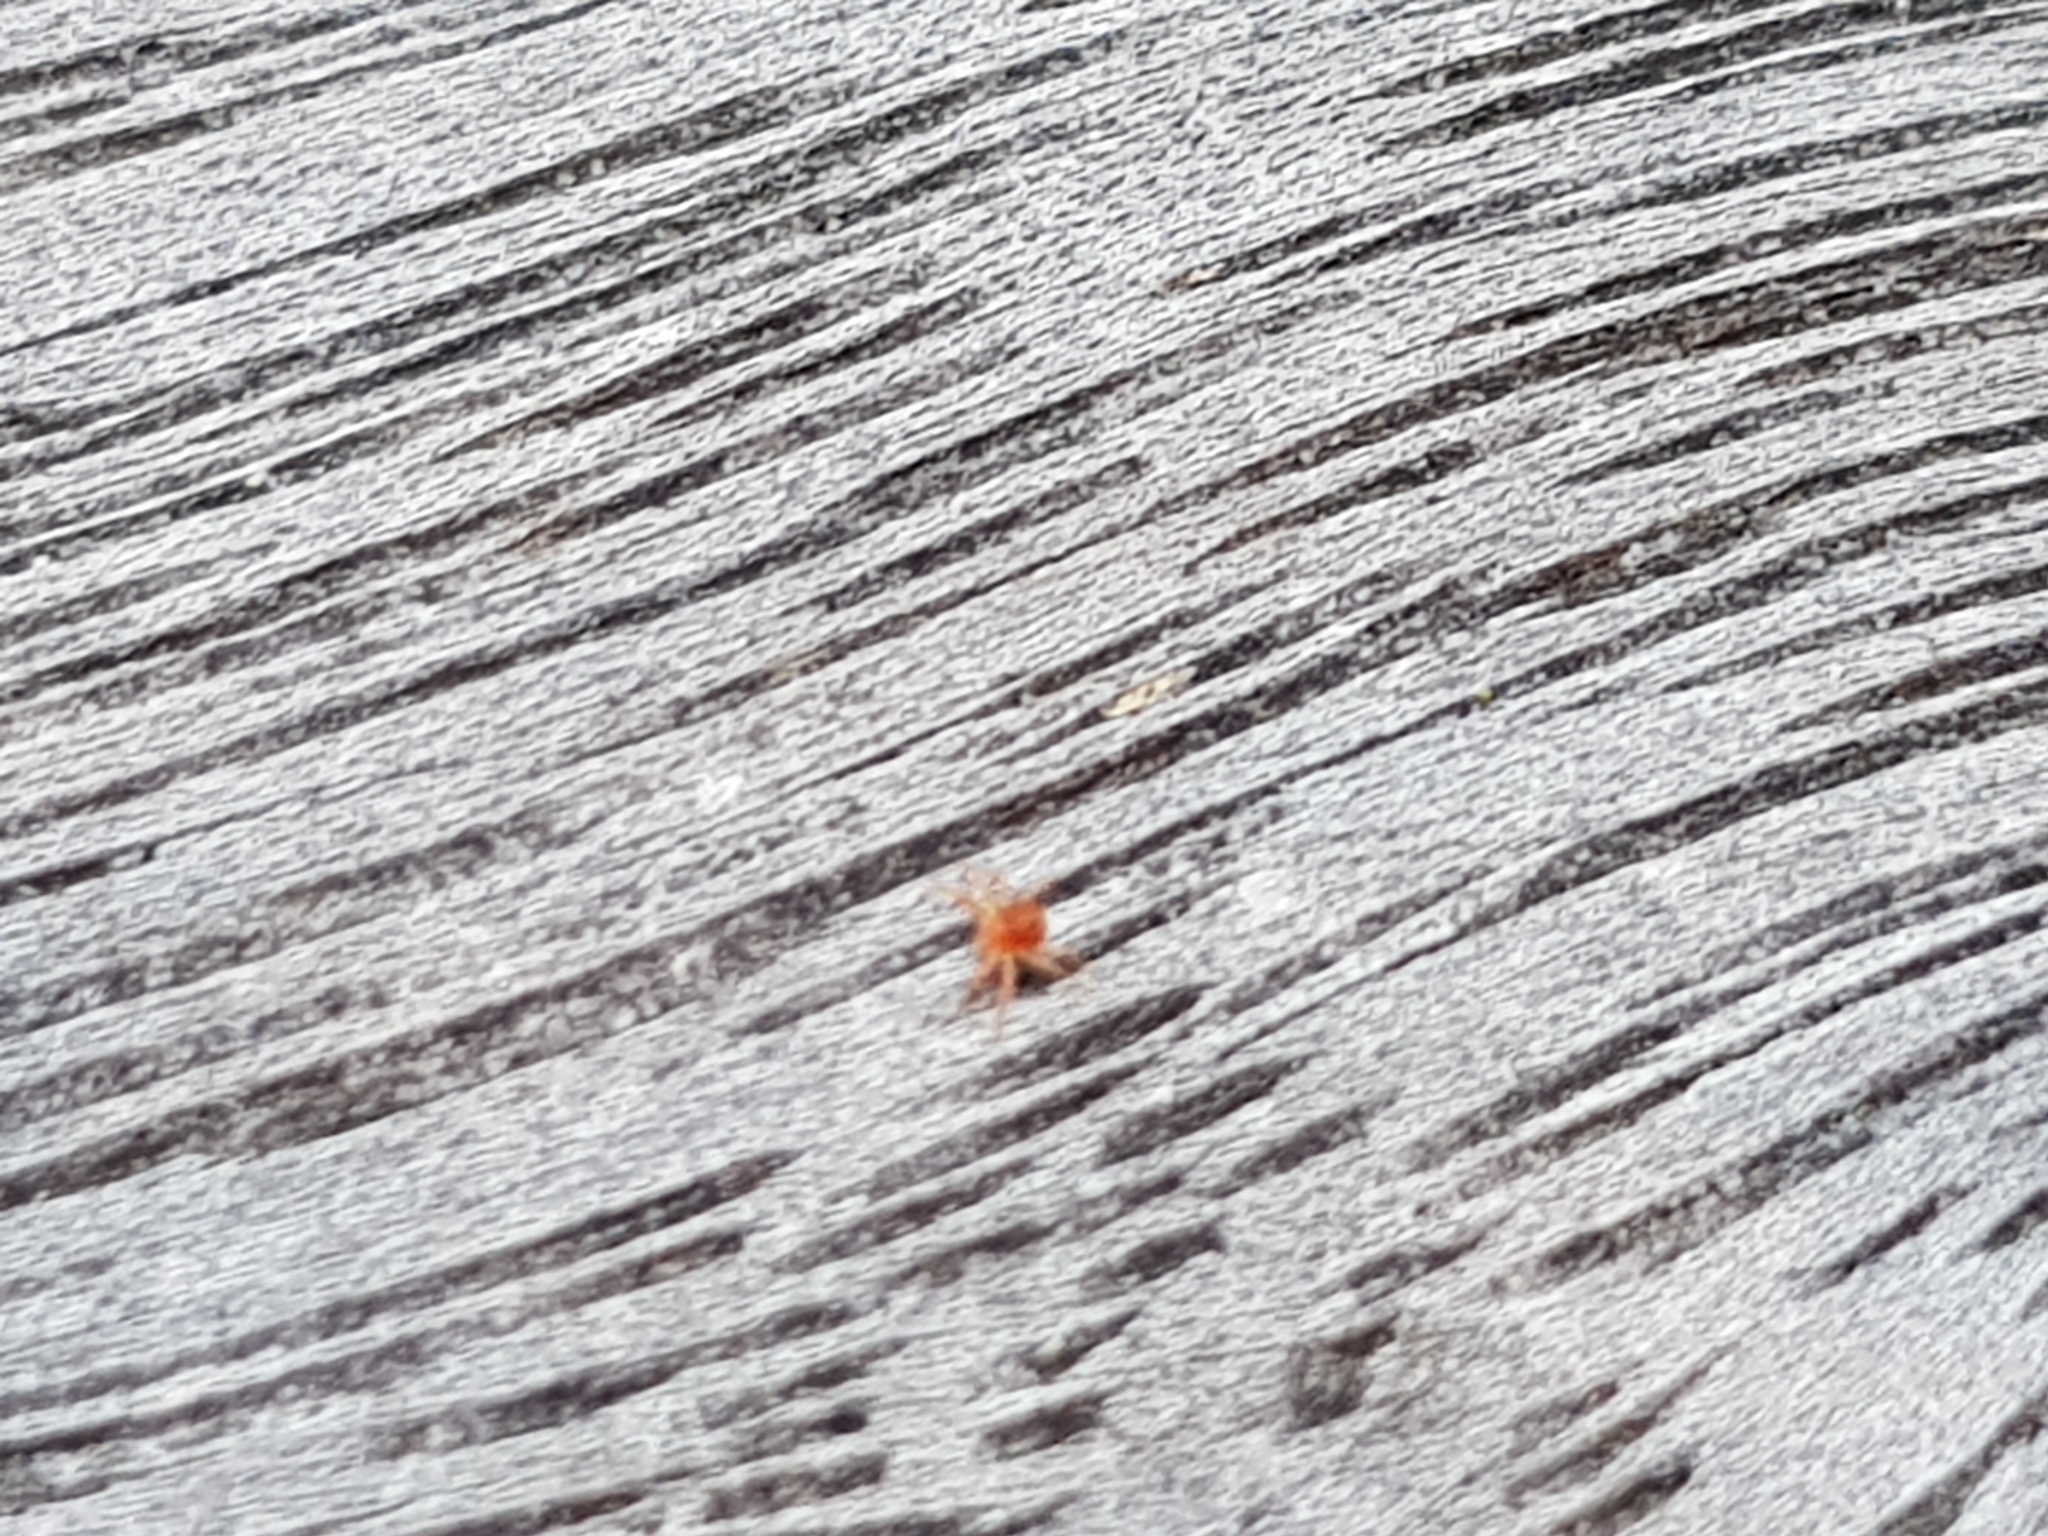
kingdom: Animalia
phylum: Arthropoda
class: Arachnida
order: Trombidiformes
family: Anystidae
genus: Anystis
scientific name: Anystis baccarum
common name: Whirlagig mite
